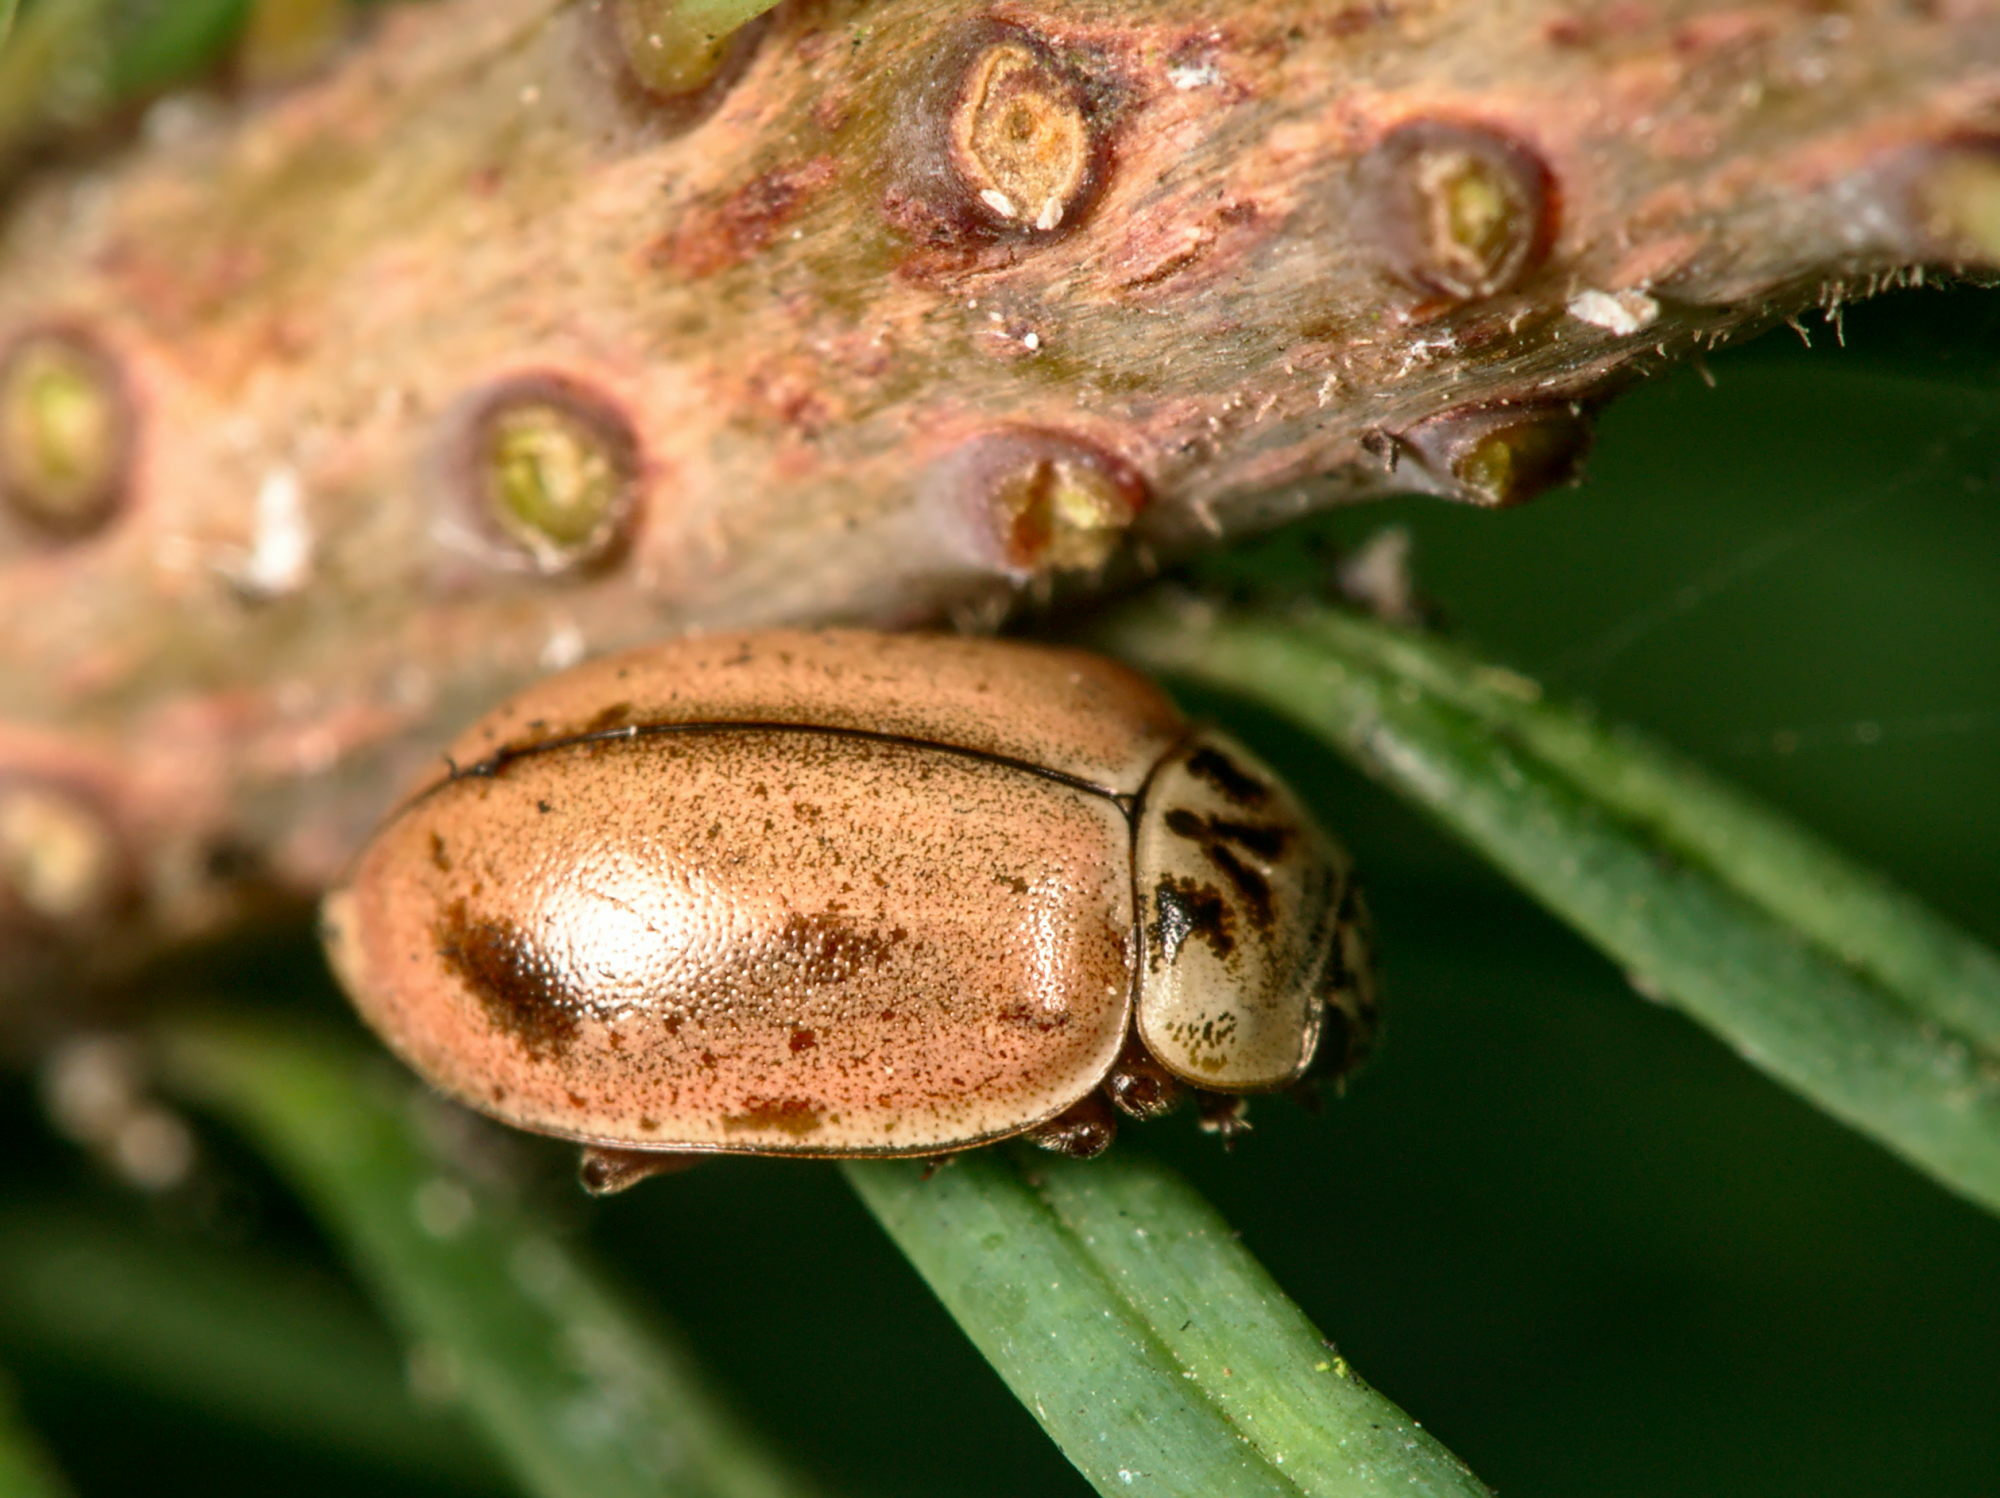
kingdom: Animalia
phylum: Arthropoda
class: Insecta
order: Coleoptera
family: Coccinellidae
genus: Aphidecta
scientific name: Aphidecta obliterata
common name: Larch ladybird
